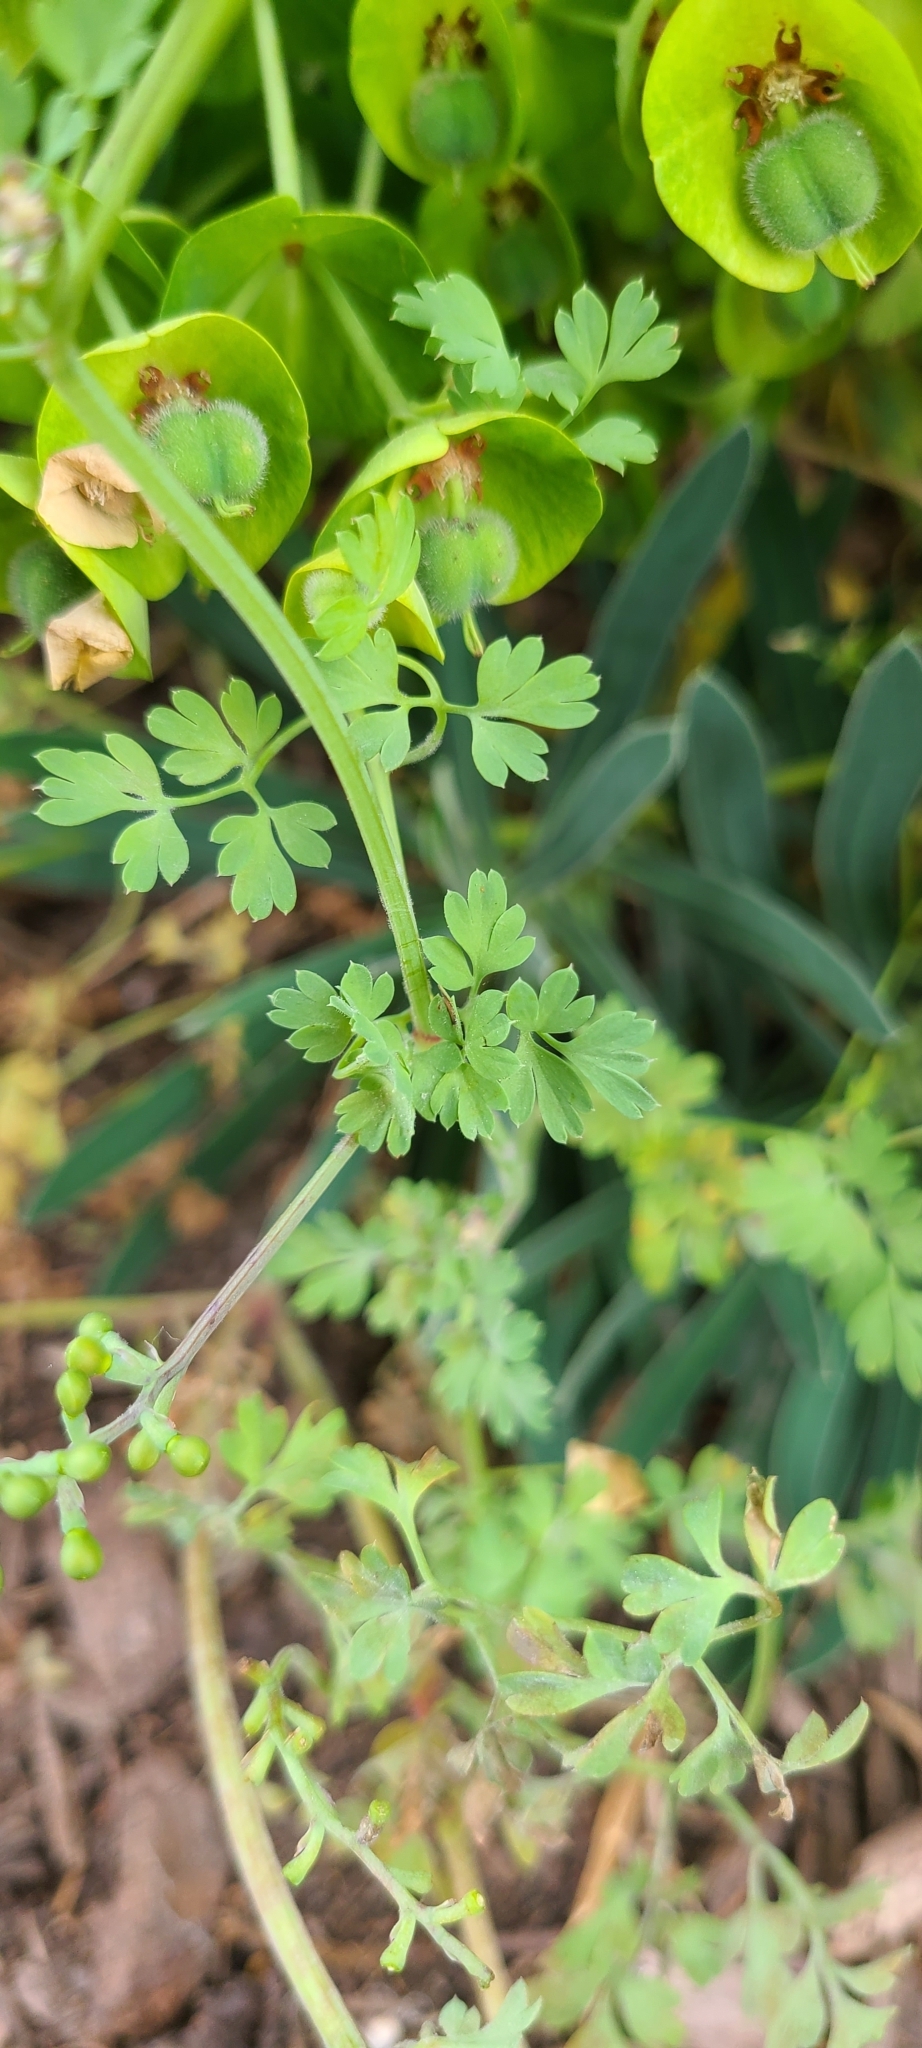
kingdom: Plantae
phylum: Tracheophyta
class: Magnoliopsida
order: Ranunculales
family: Papaveraceae
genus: Fumaria
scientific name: Fumaria bastardii
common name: Tall ramping-fumitory
